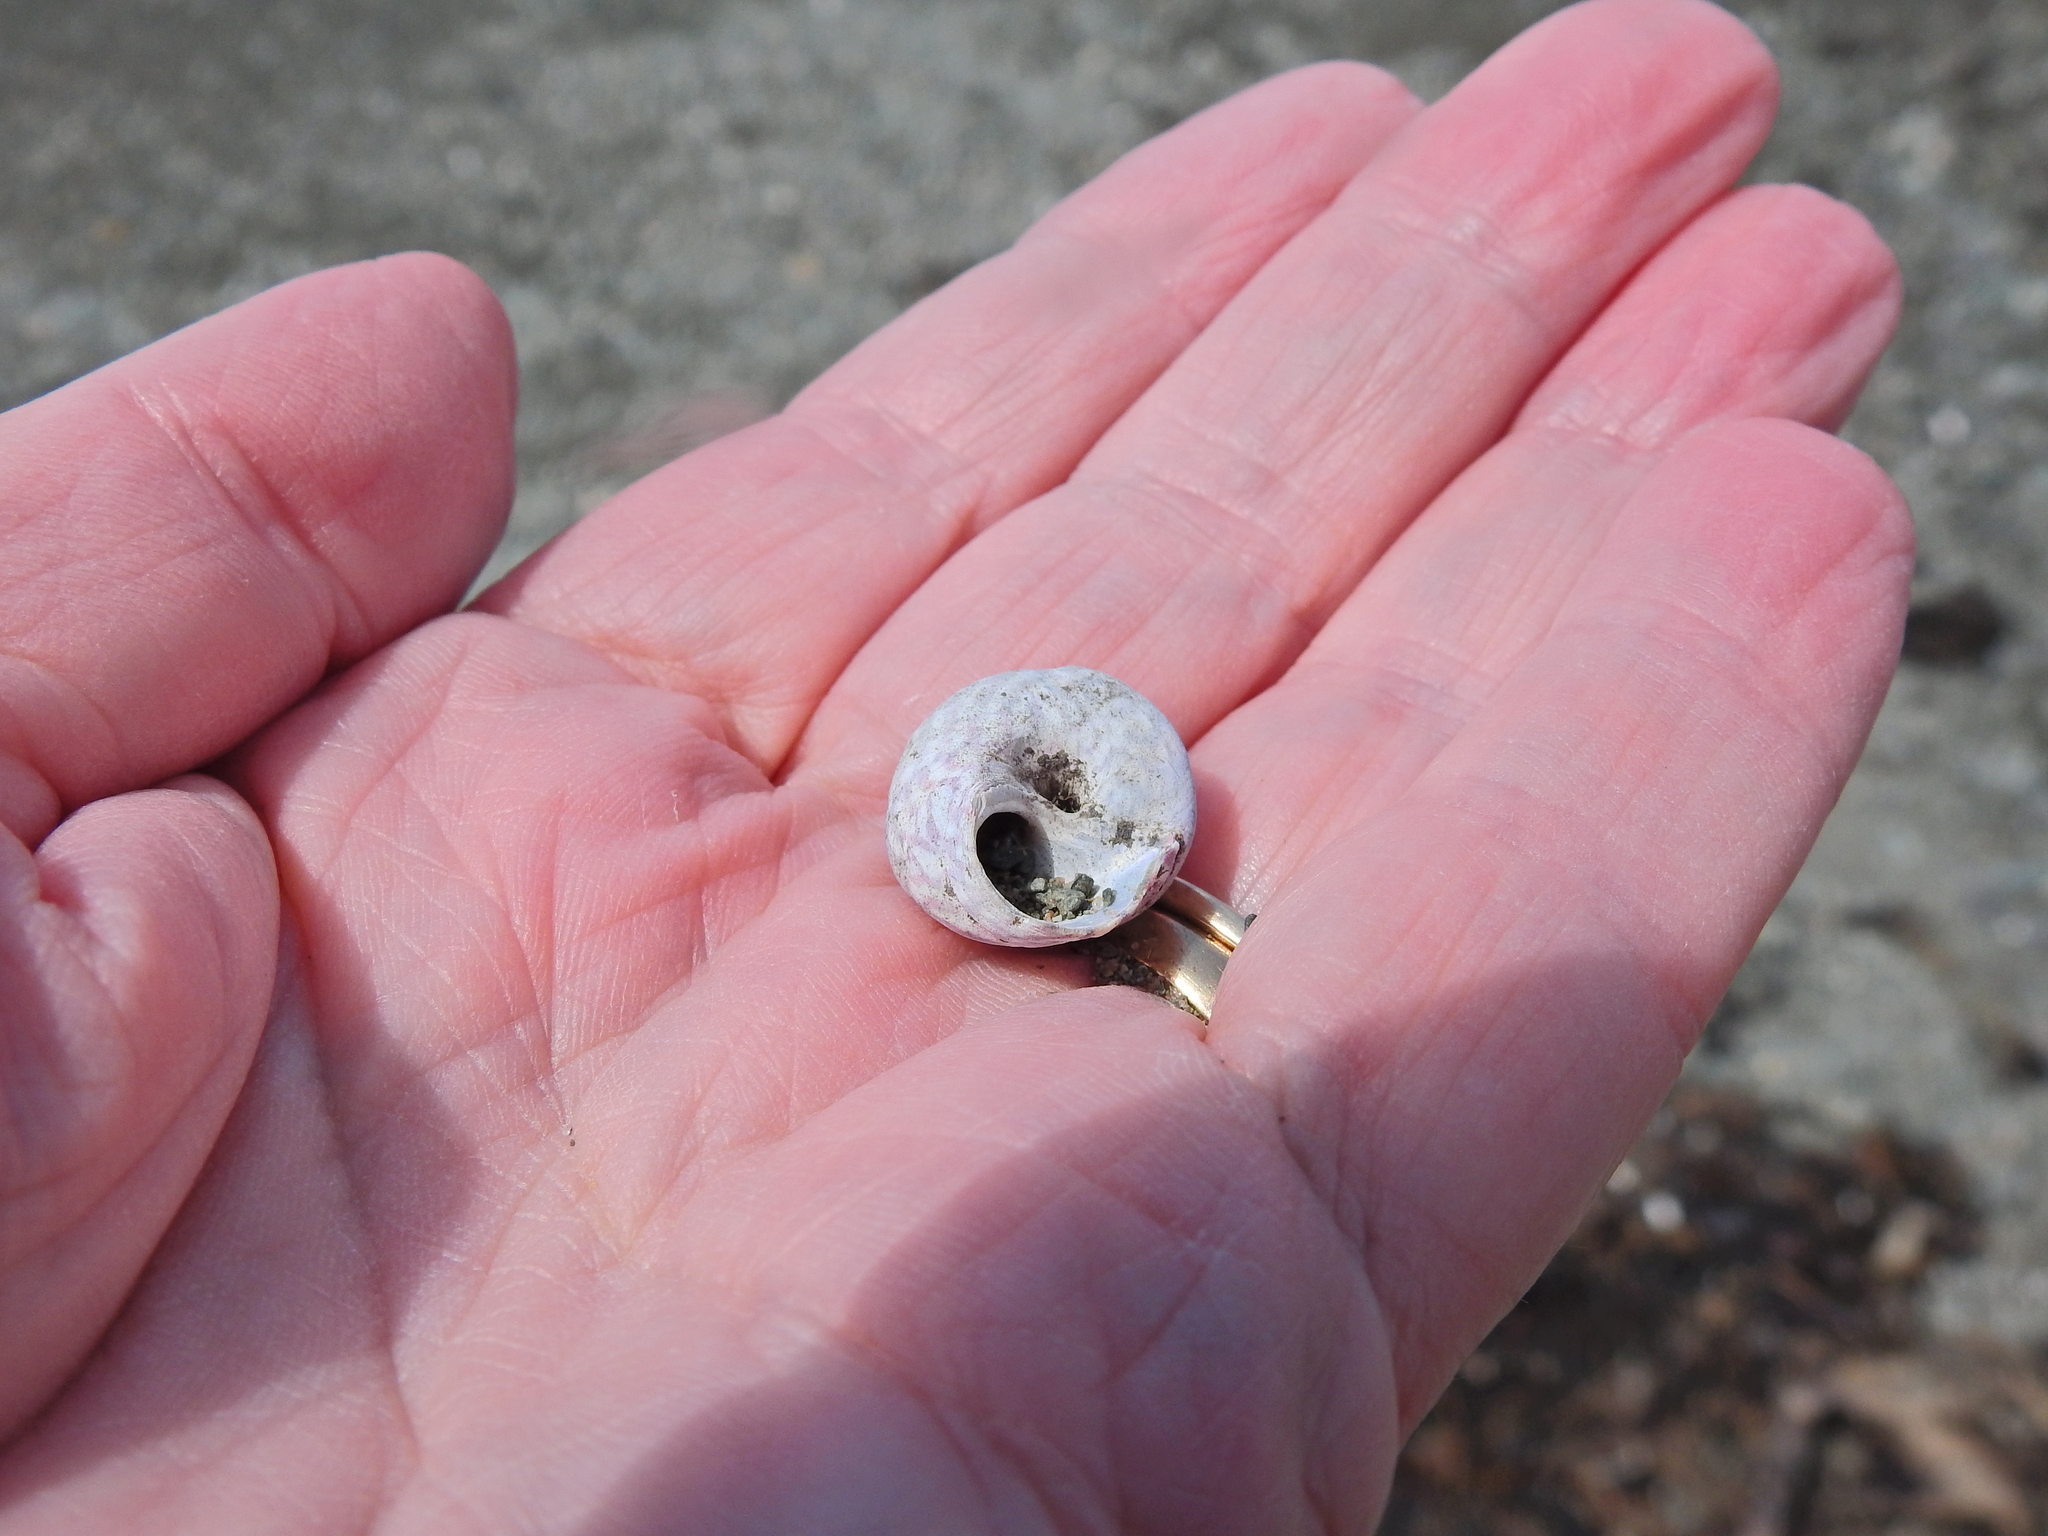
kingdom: Animalia
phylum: Mollusca
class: Gastropoda
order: Trochida
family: Trochidae
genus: Steromphala
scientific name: Steromphala umbilicalis
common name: Flat top shell
